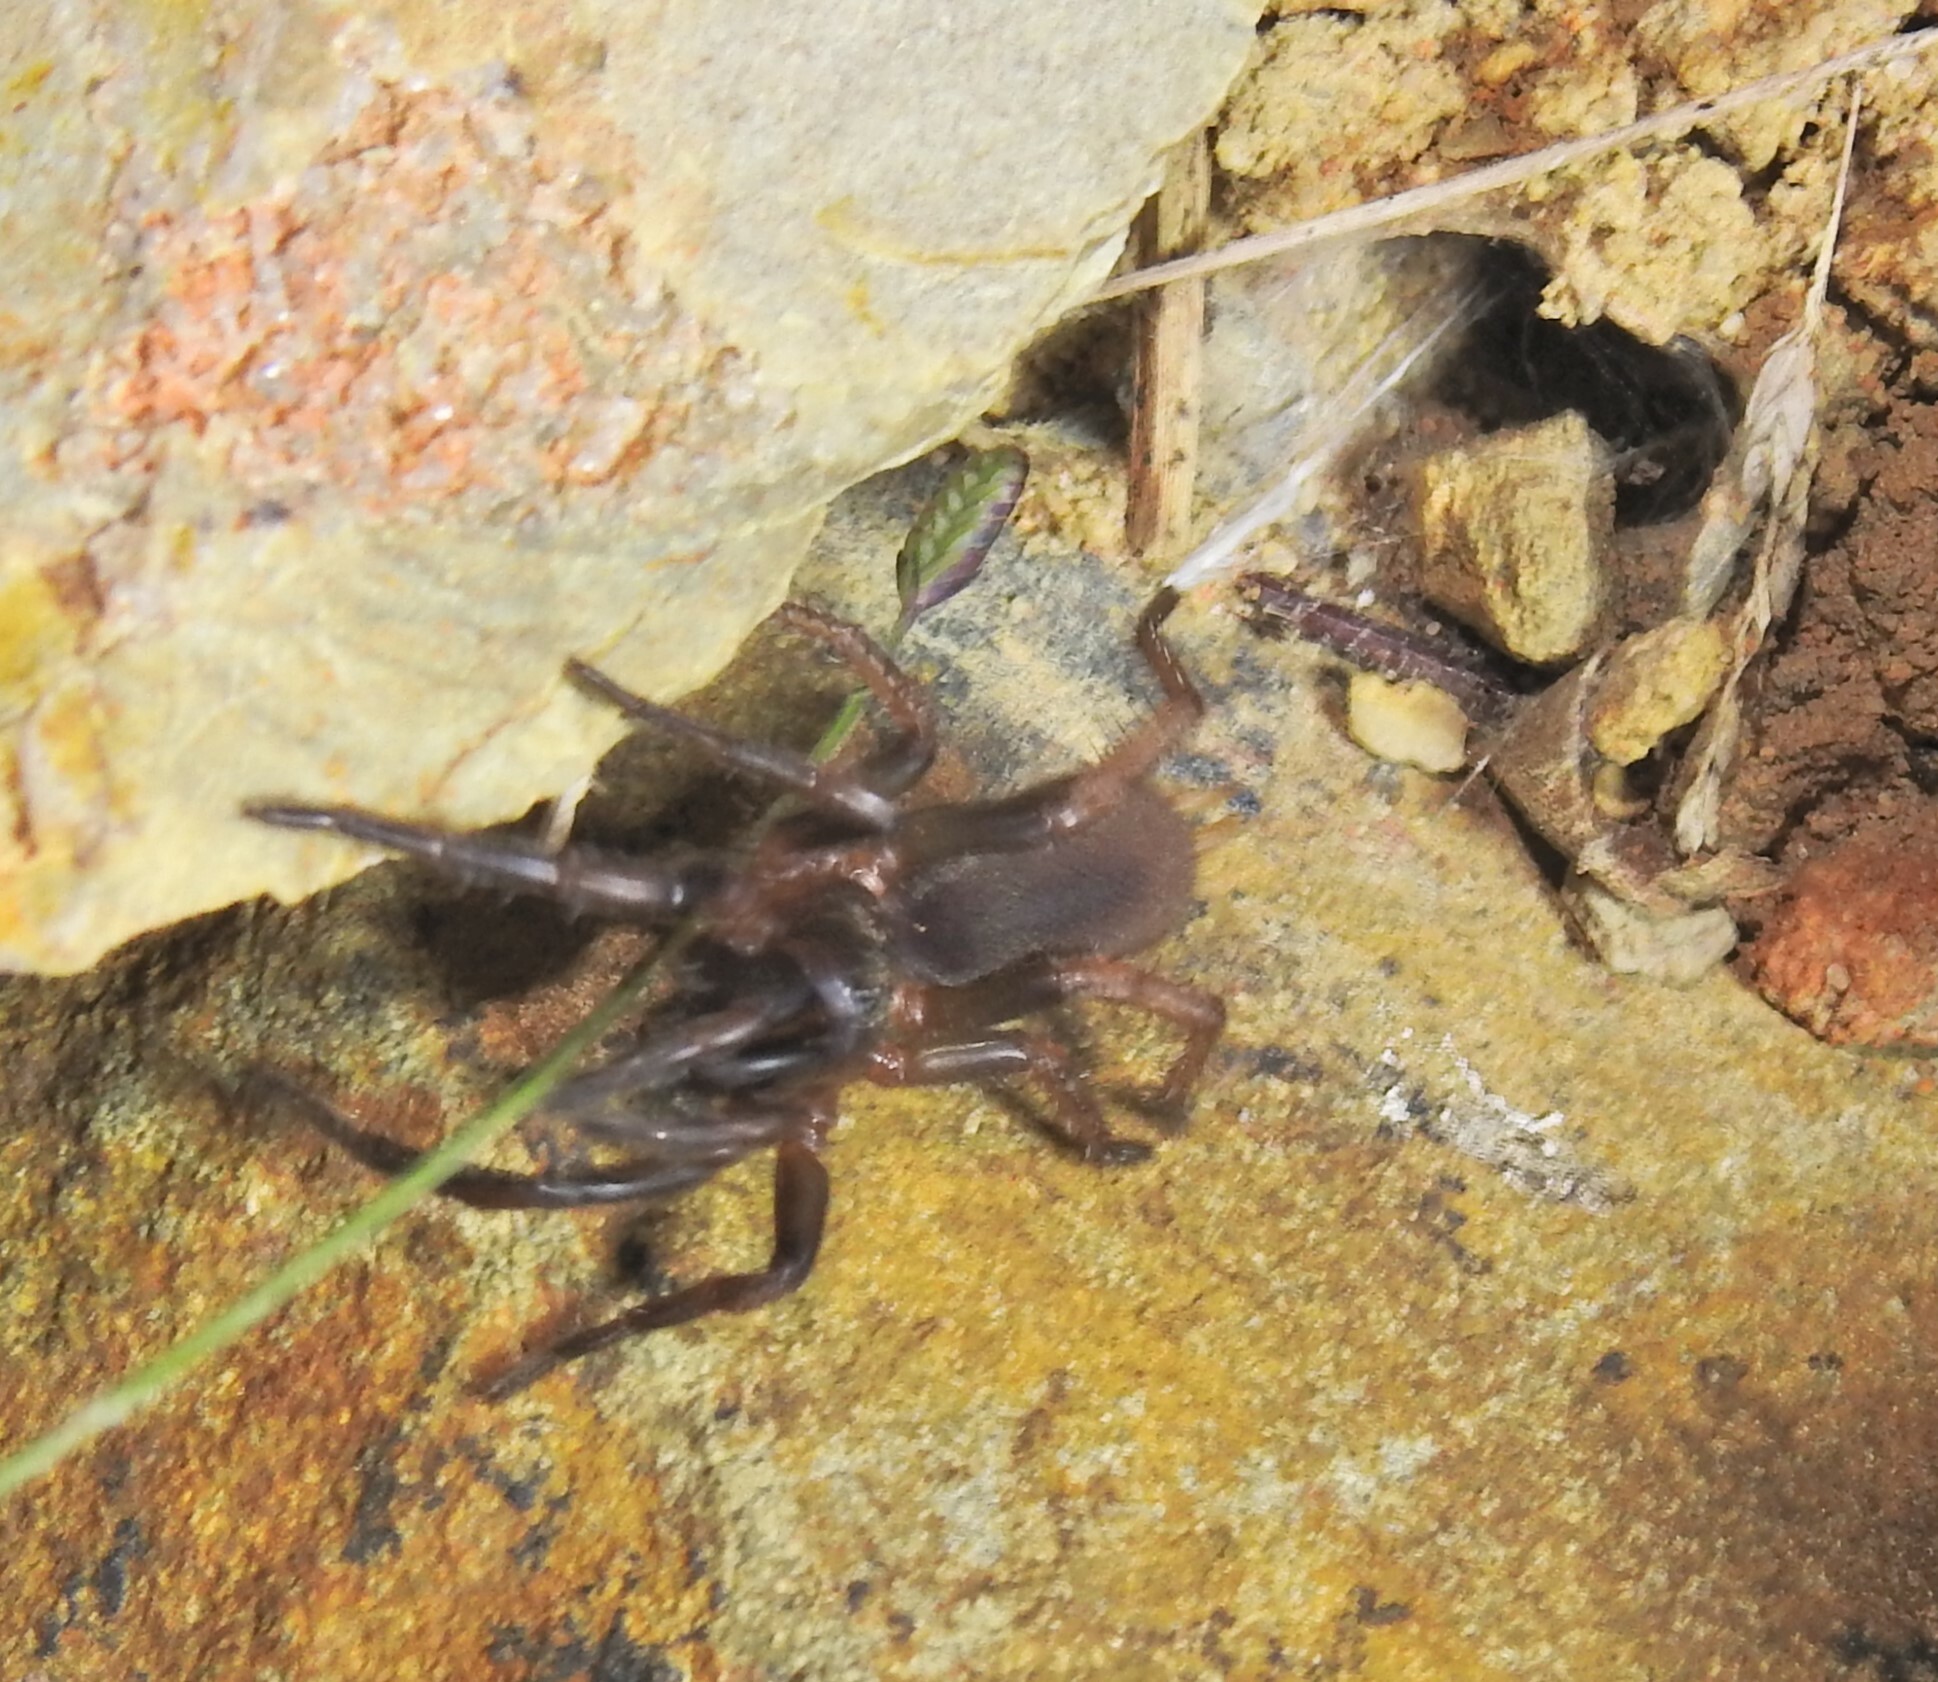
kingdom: Animalia
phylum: Arthropoda
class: Arachnida
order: Araneae
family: Anamidae
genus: Aname
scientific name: Aname pallida
